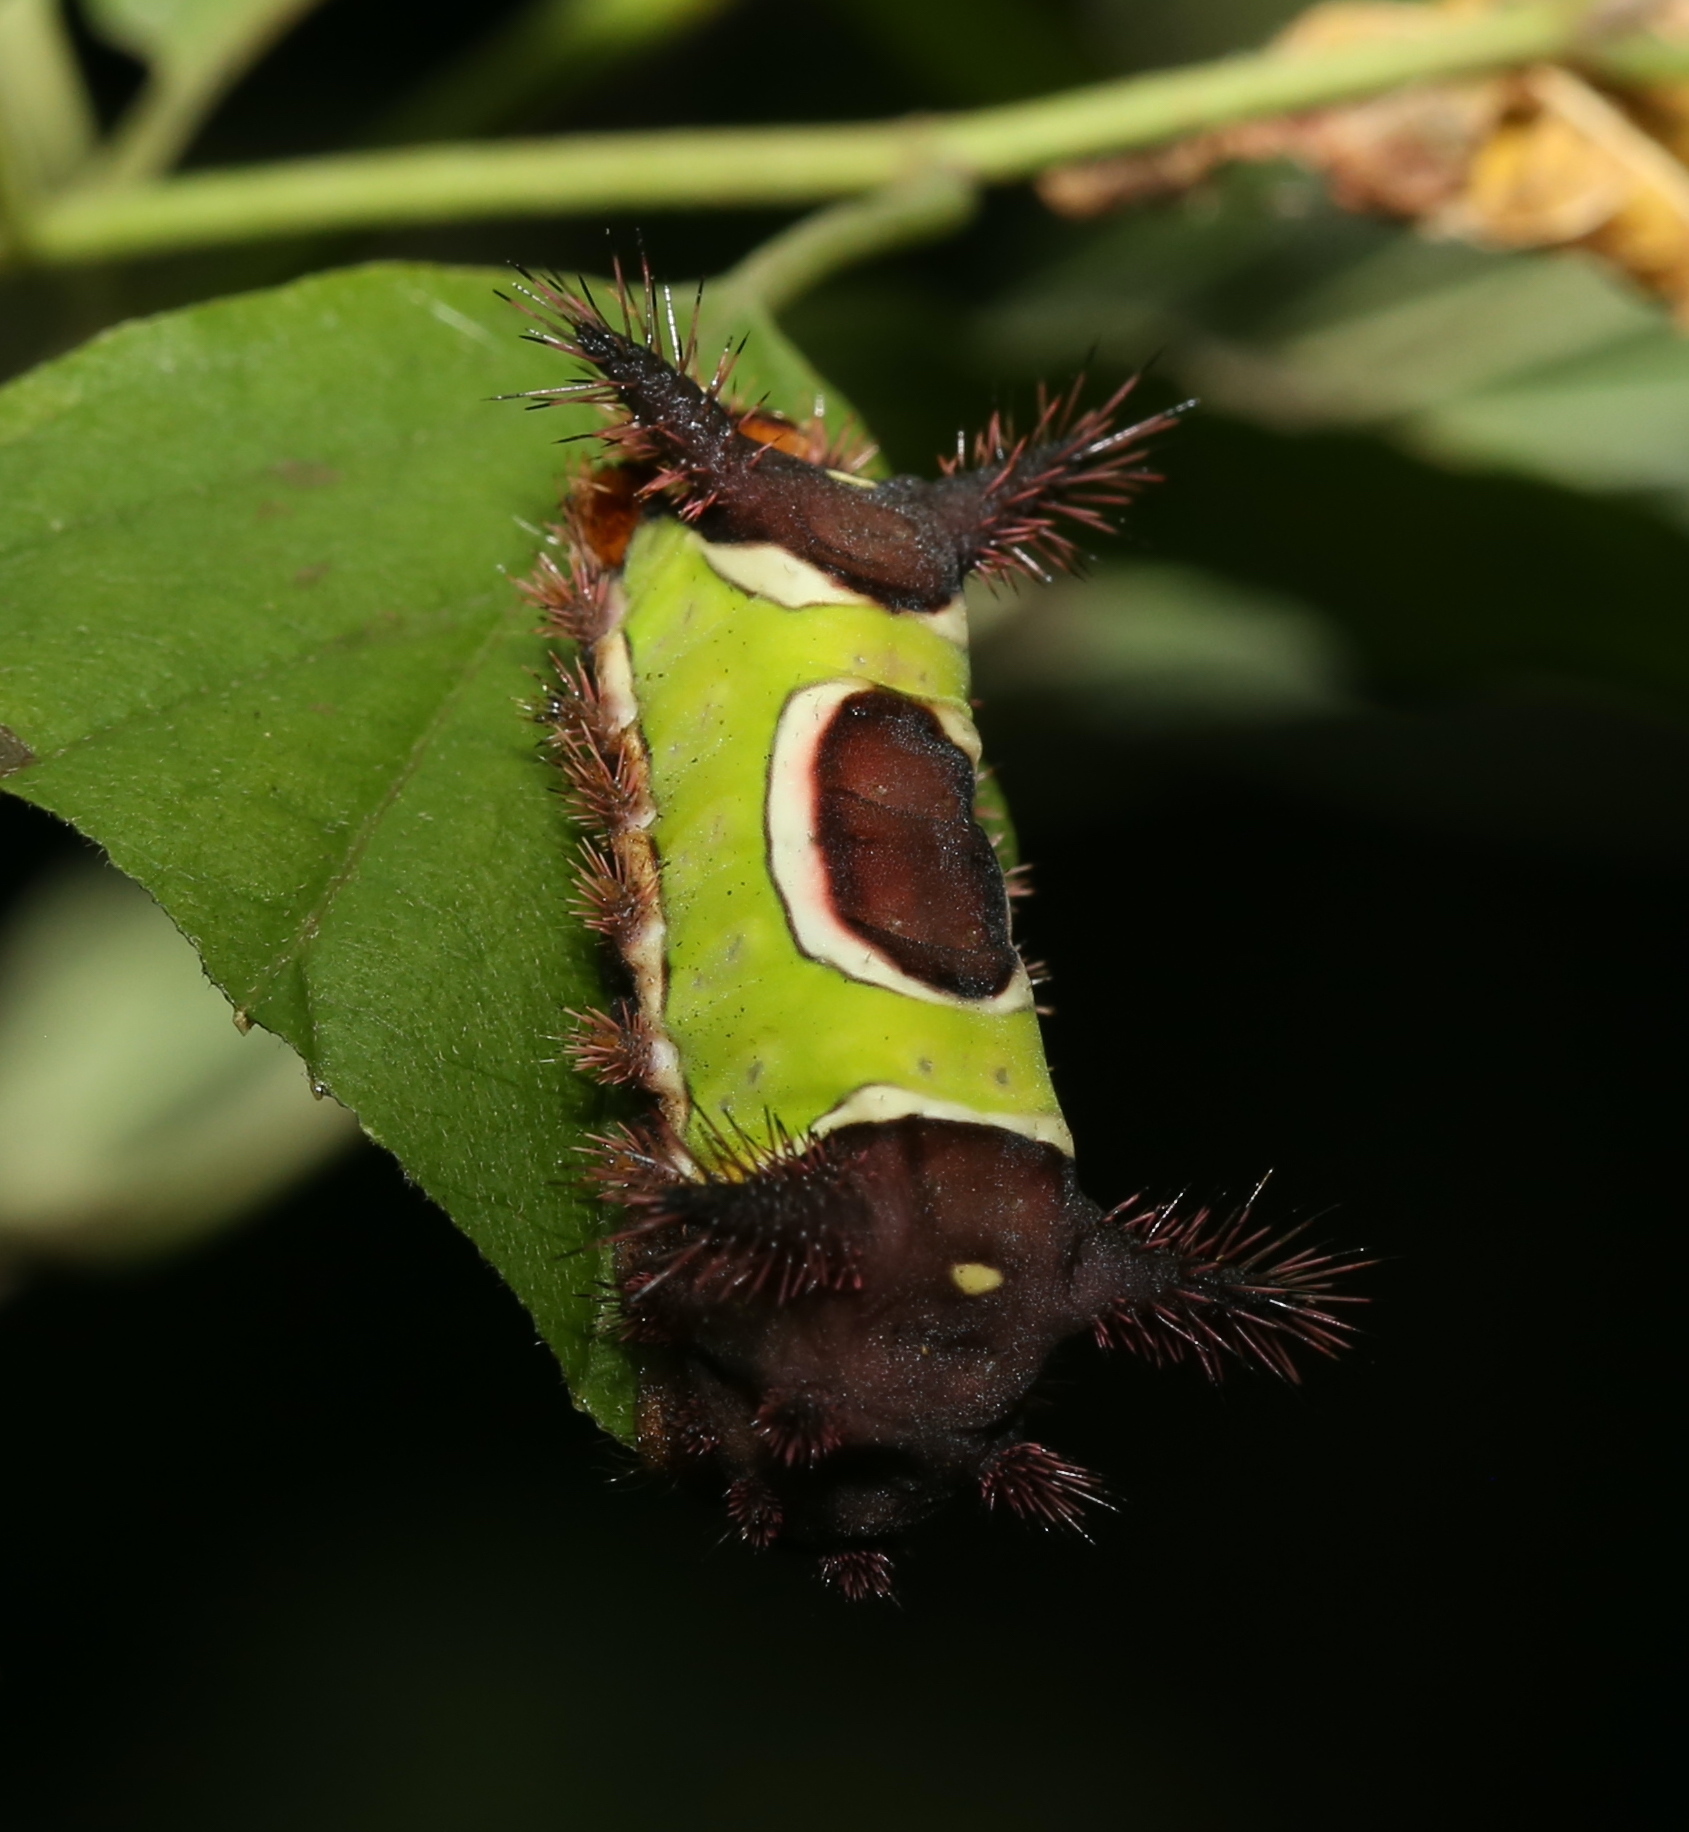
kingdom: Animalia
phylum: Arthropoda
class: Insecta
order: Lepidoptera
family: Limacodidae
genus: Acharia
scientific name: Acharia stimulea
